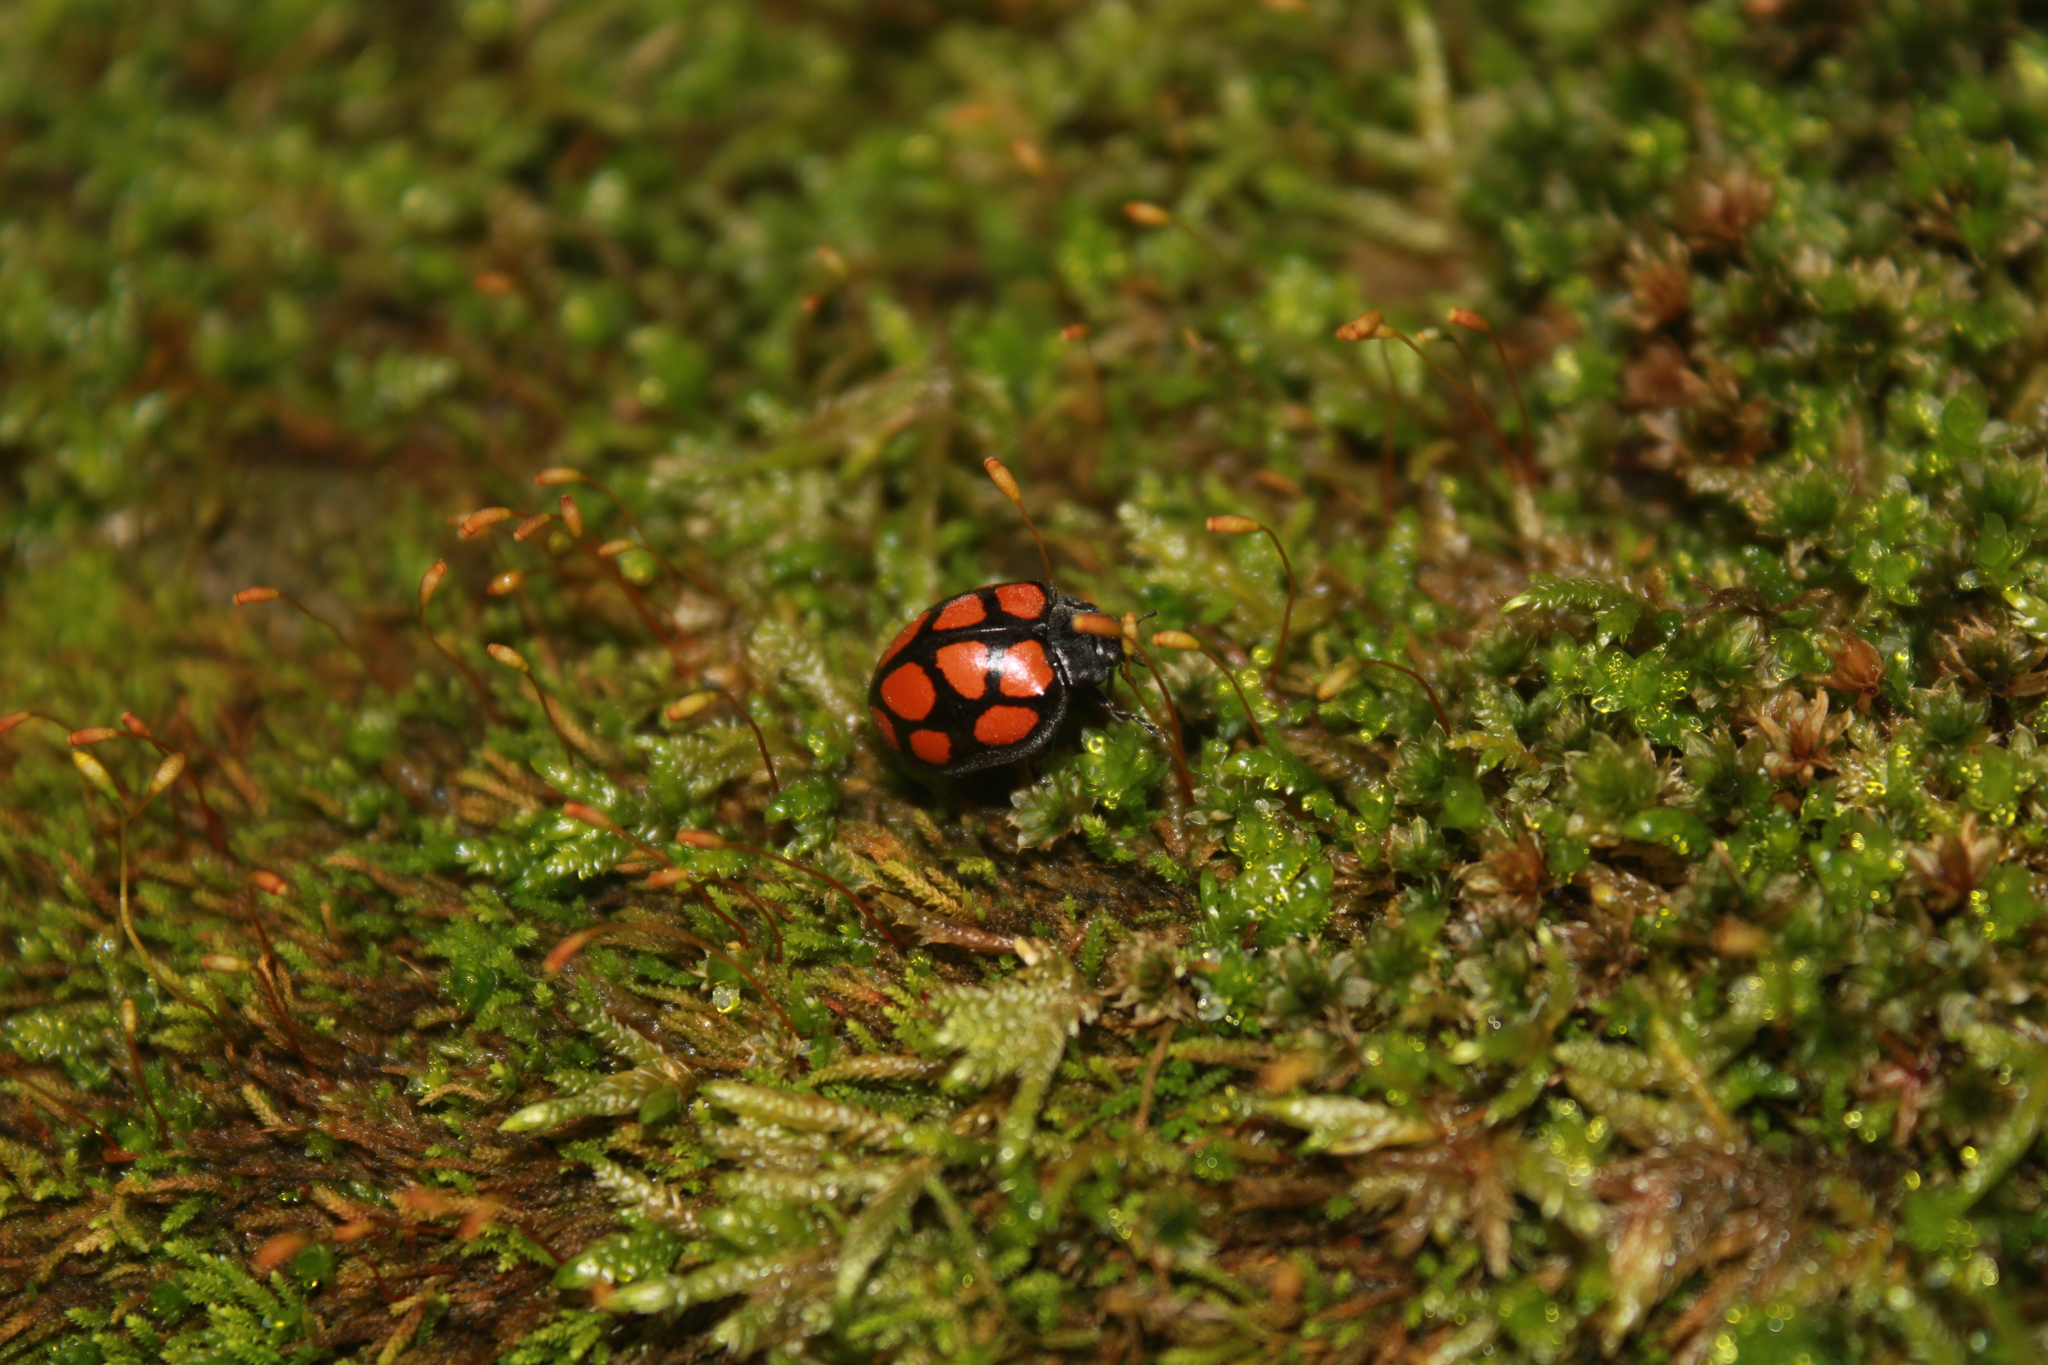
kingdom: Animalia
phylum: Arthropoda
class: Insecta
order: Coleoptera
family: Coccinellidae
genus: Epilachna
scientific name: Epilachna
